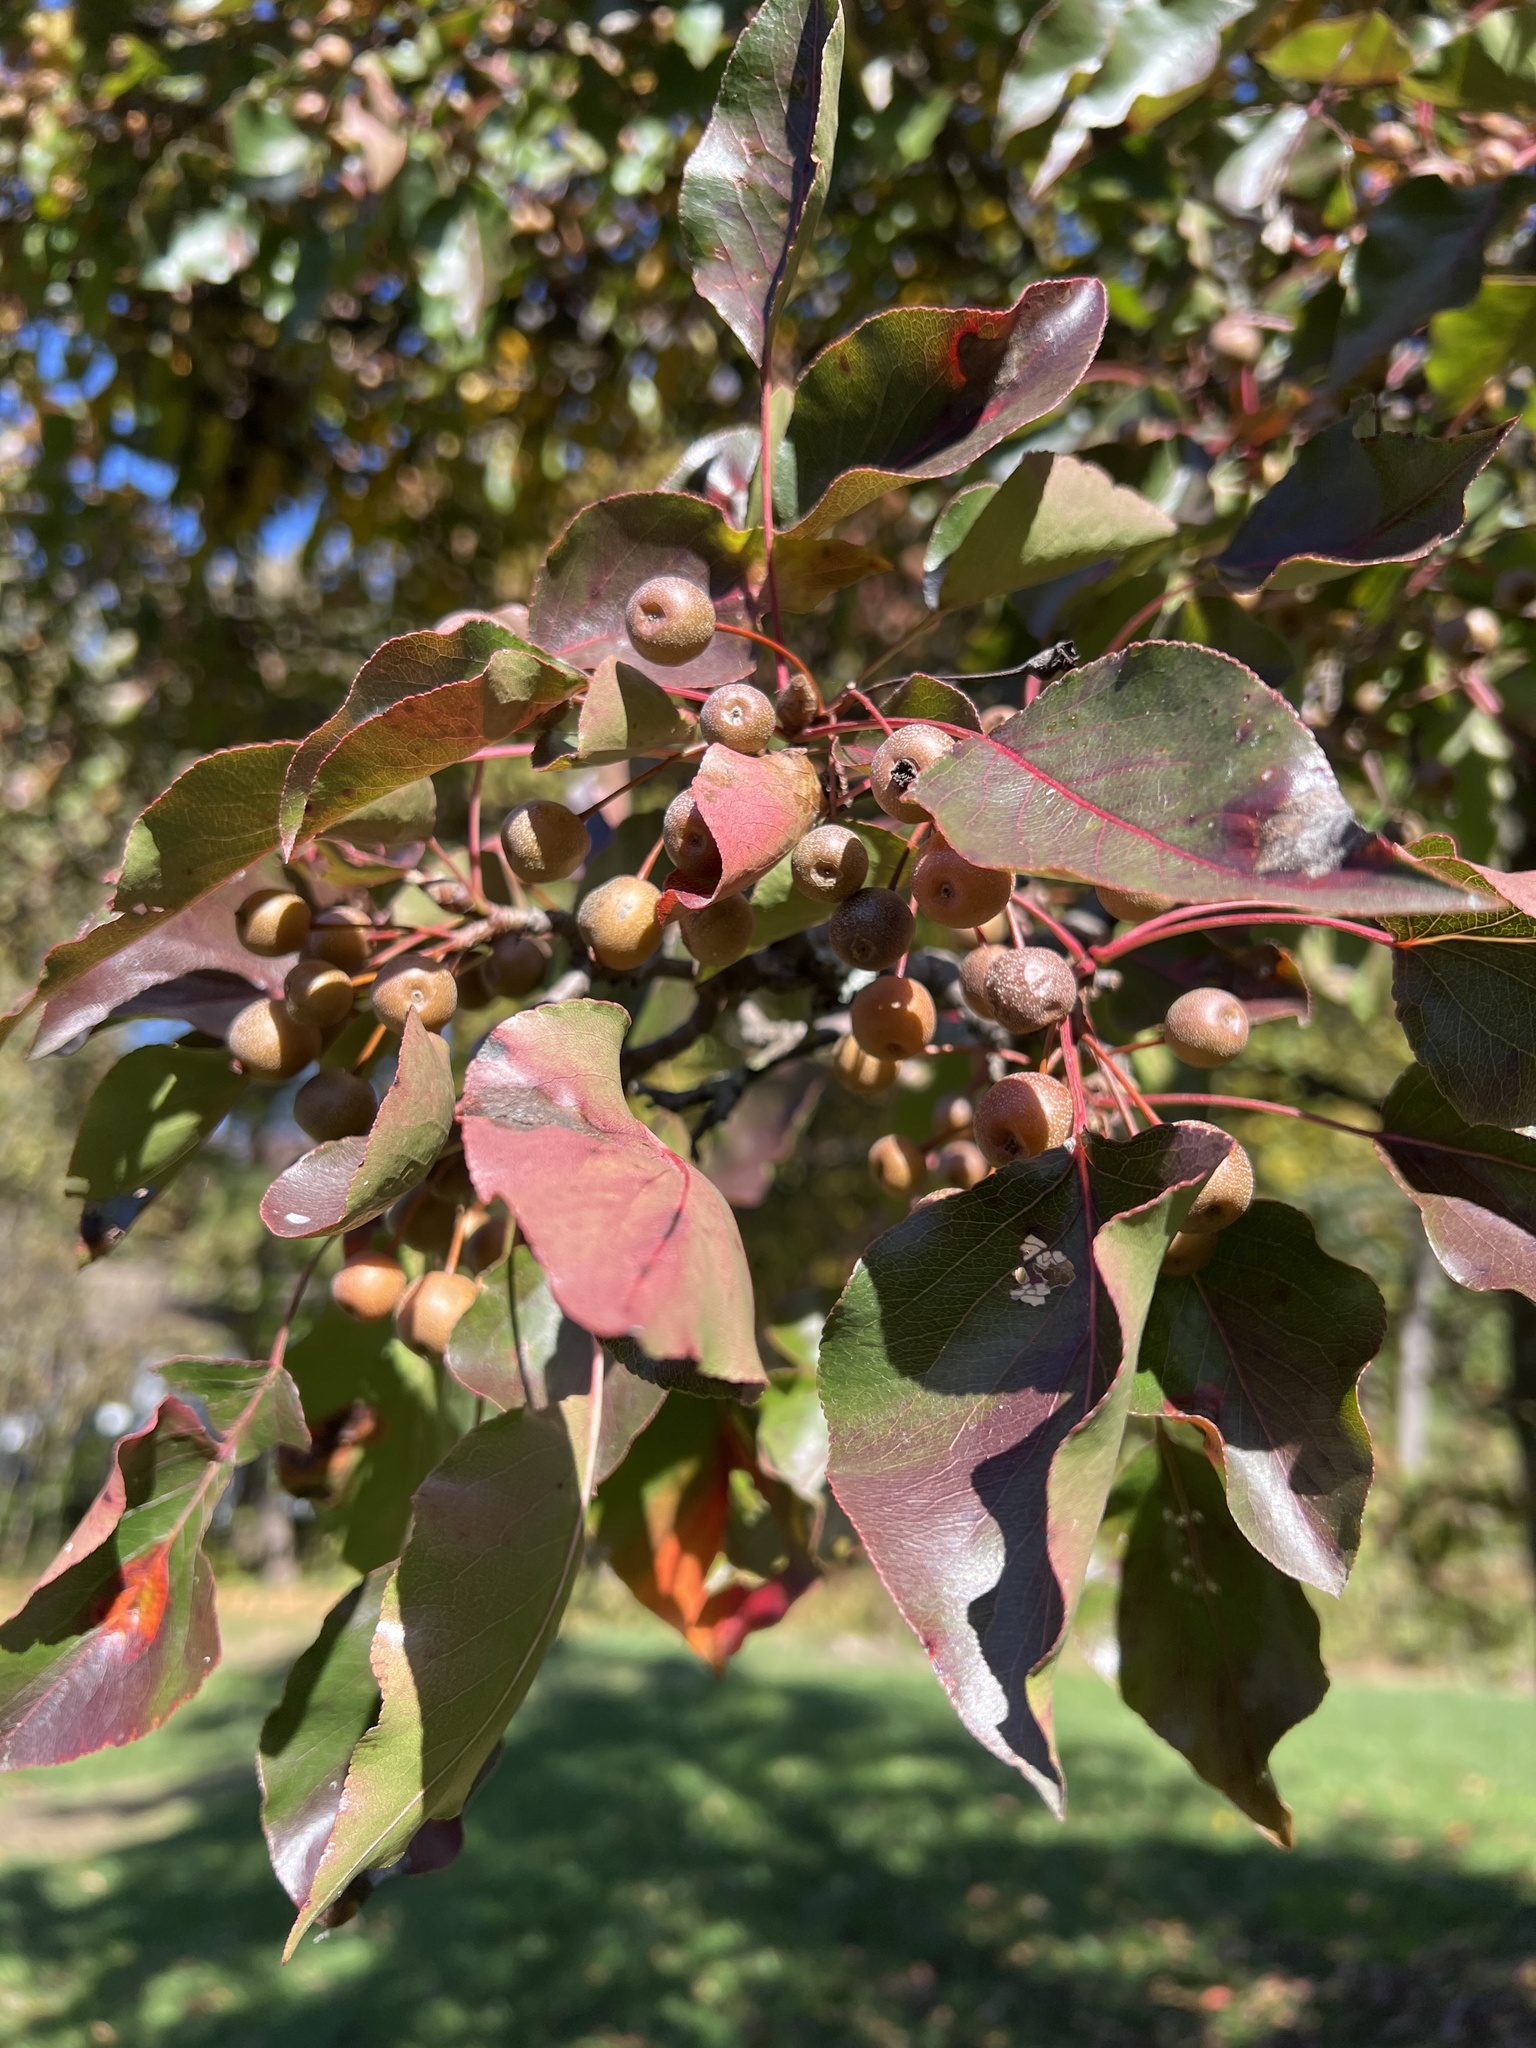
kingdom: Plantae
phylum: Tracheophyta
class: Magnoliopsida
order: Rosales
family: Rosaceae
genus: Pyrus
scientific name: Pyrus calleryana
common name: Callery pear
